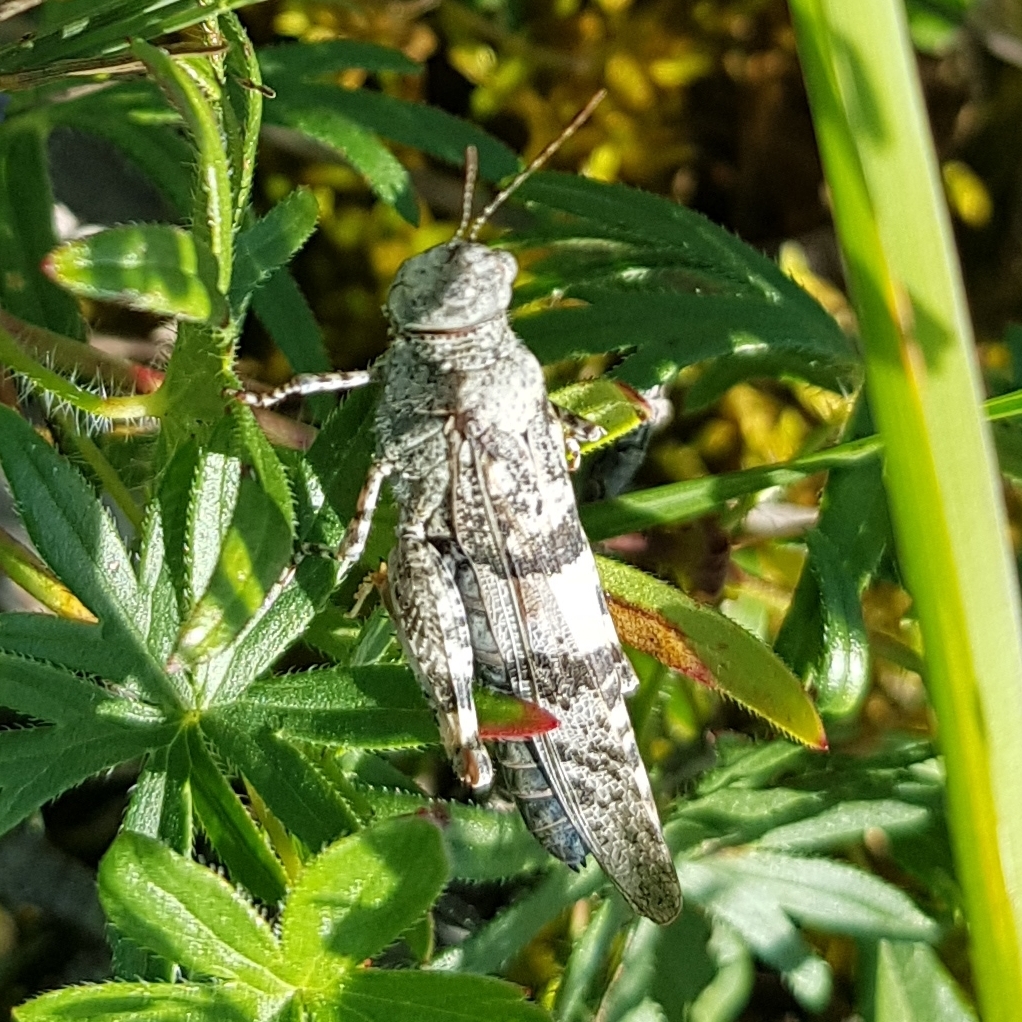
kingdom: Animalia
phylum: Arthropoda
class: Insecta
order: Orthoptera
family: Acrididae
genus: Sphingonotus
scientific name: Sphingonotus caerulans
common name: Blue-winged locust
